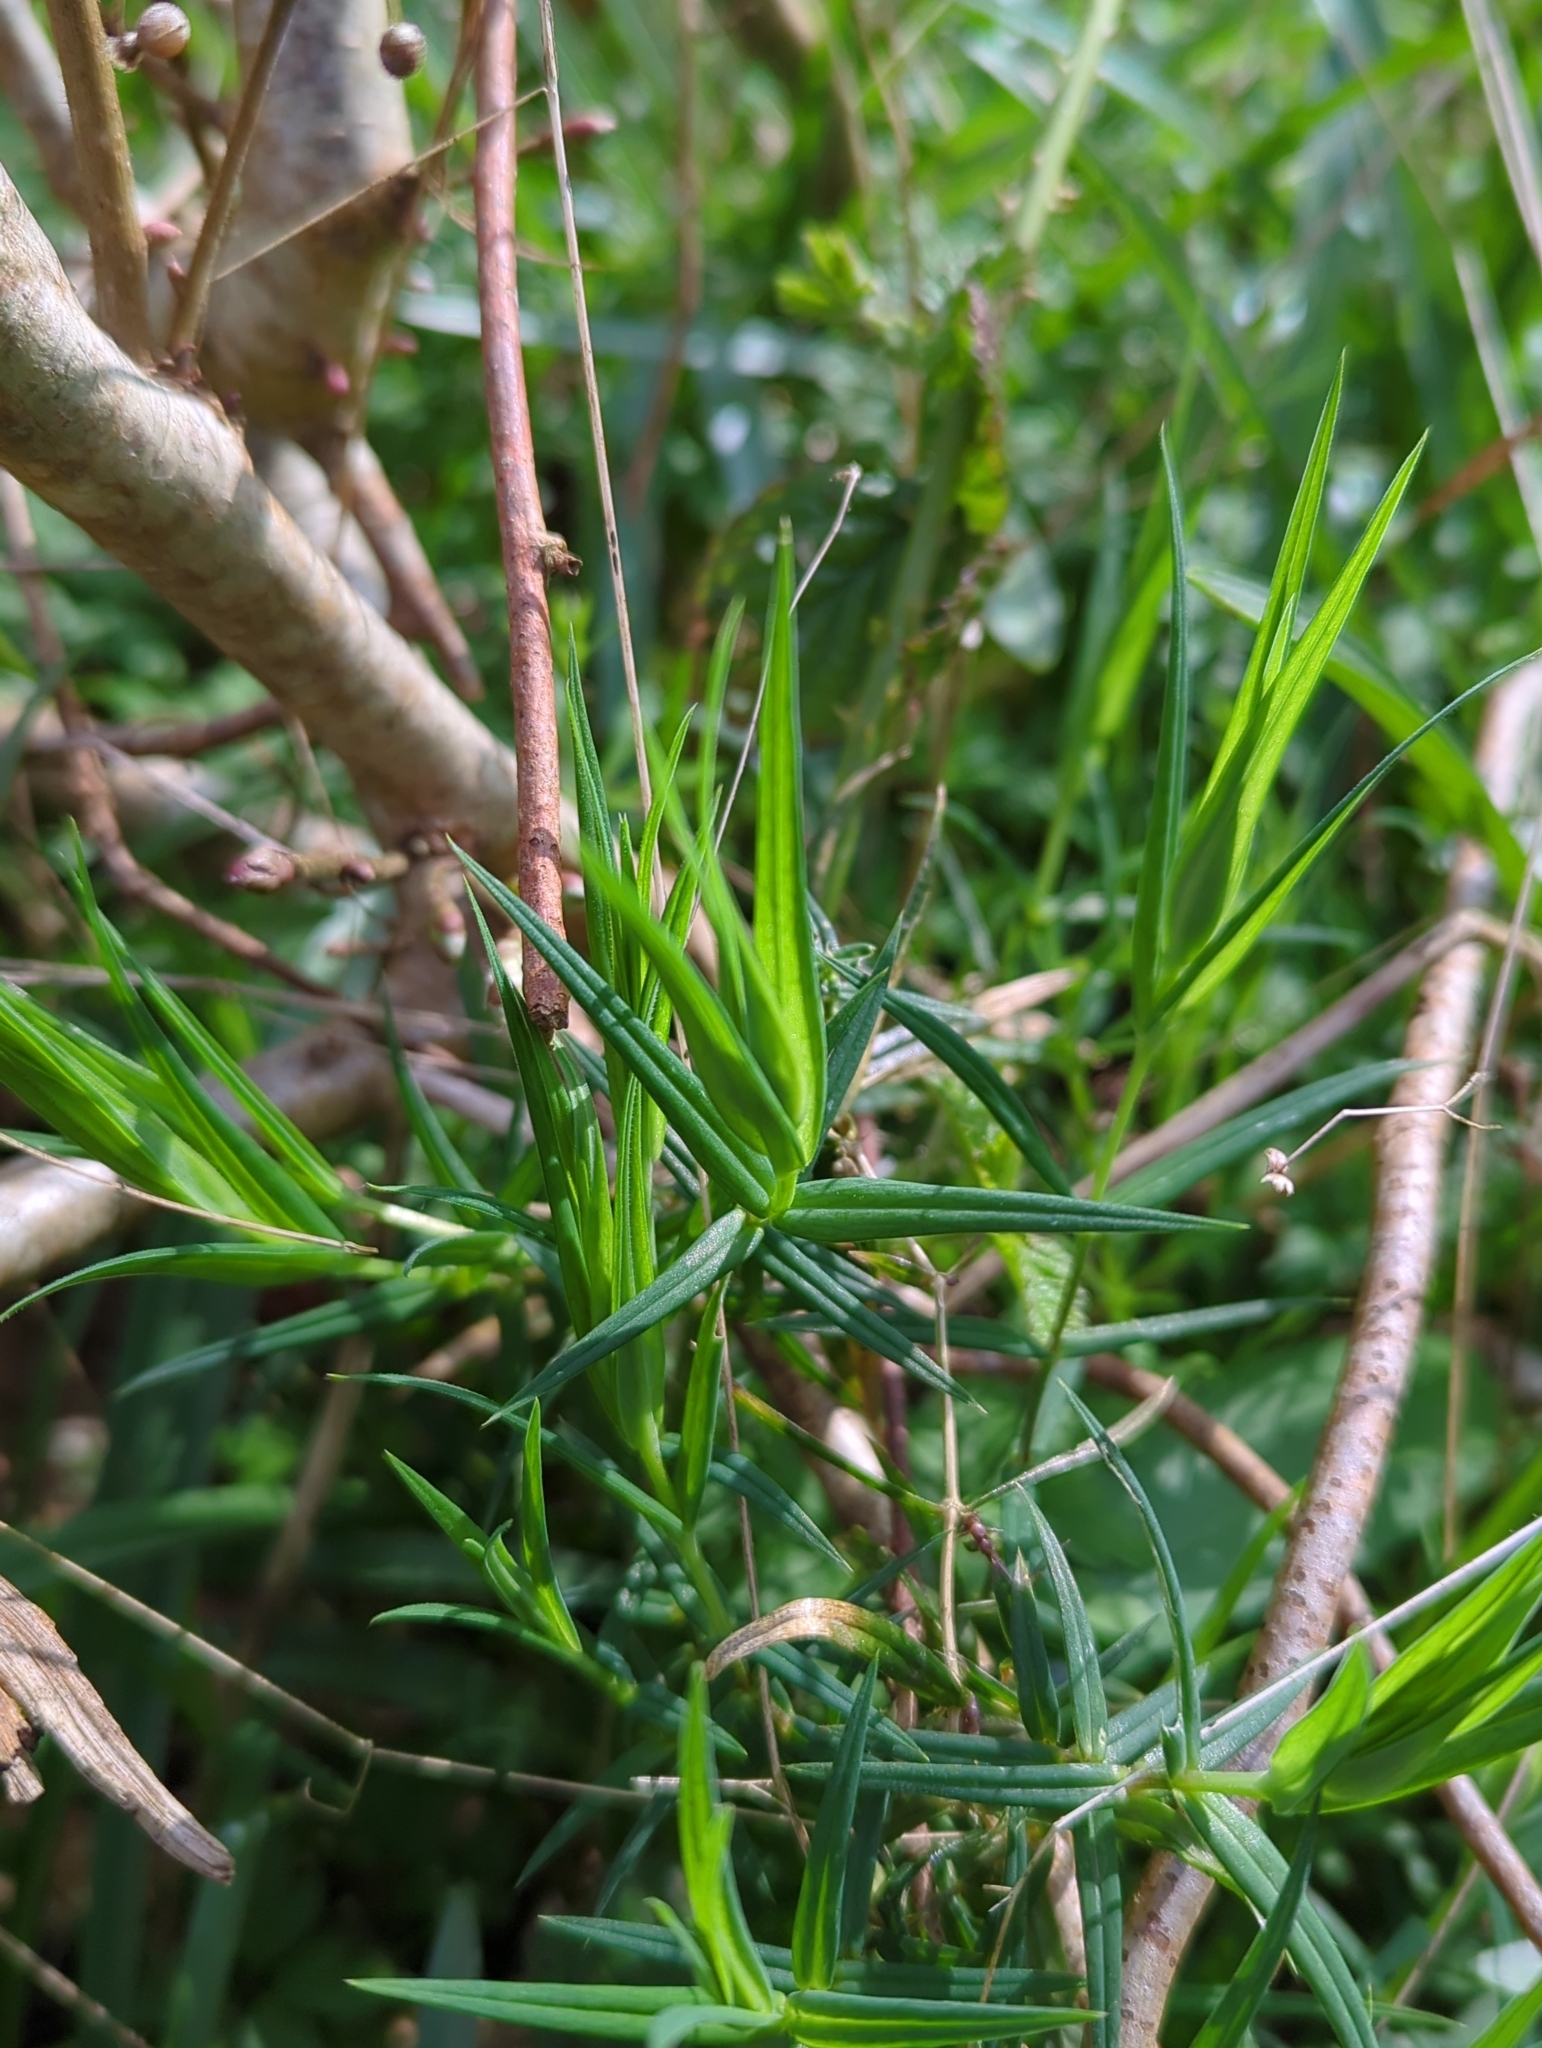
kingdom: Plantae
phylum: Tracheophyta
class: Magnoliopsida
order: Caryophyllales
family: Caryophyllaceae
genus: Rabelera
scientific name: Rabelera holostea
